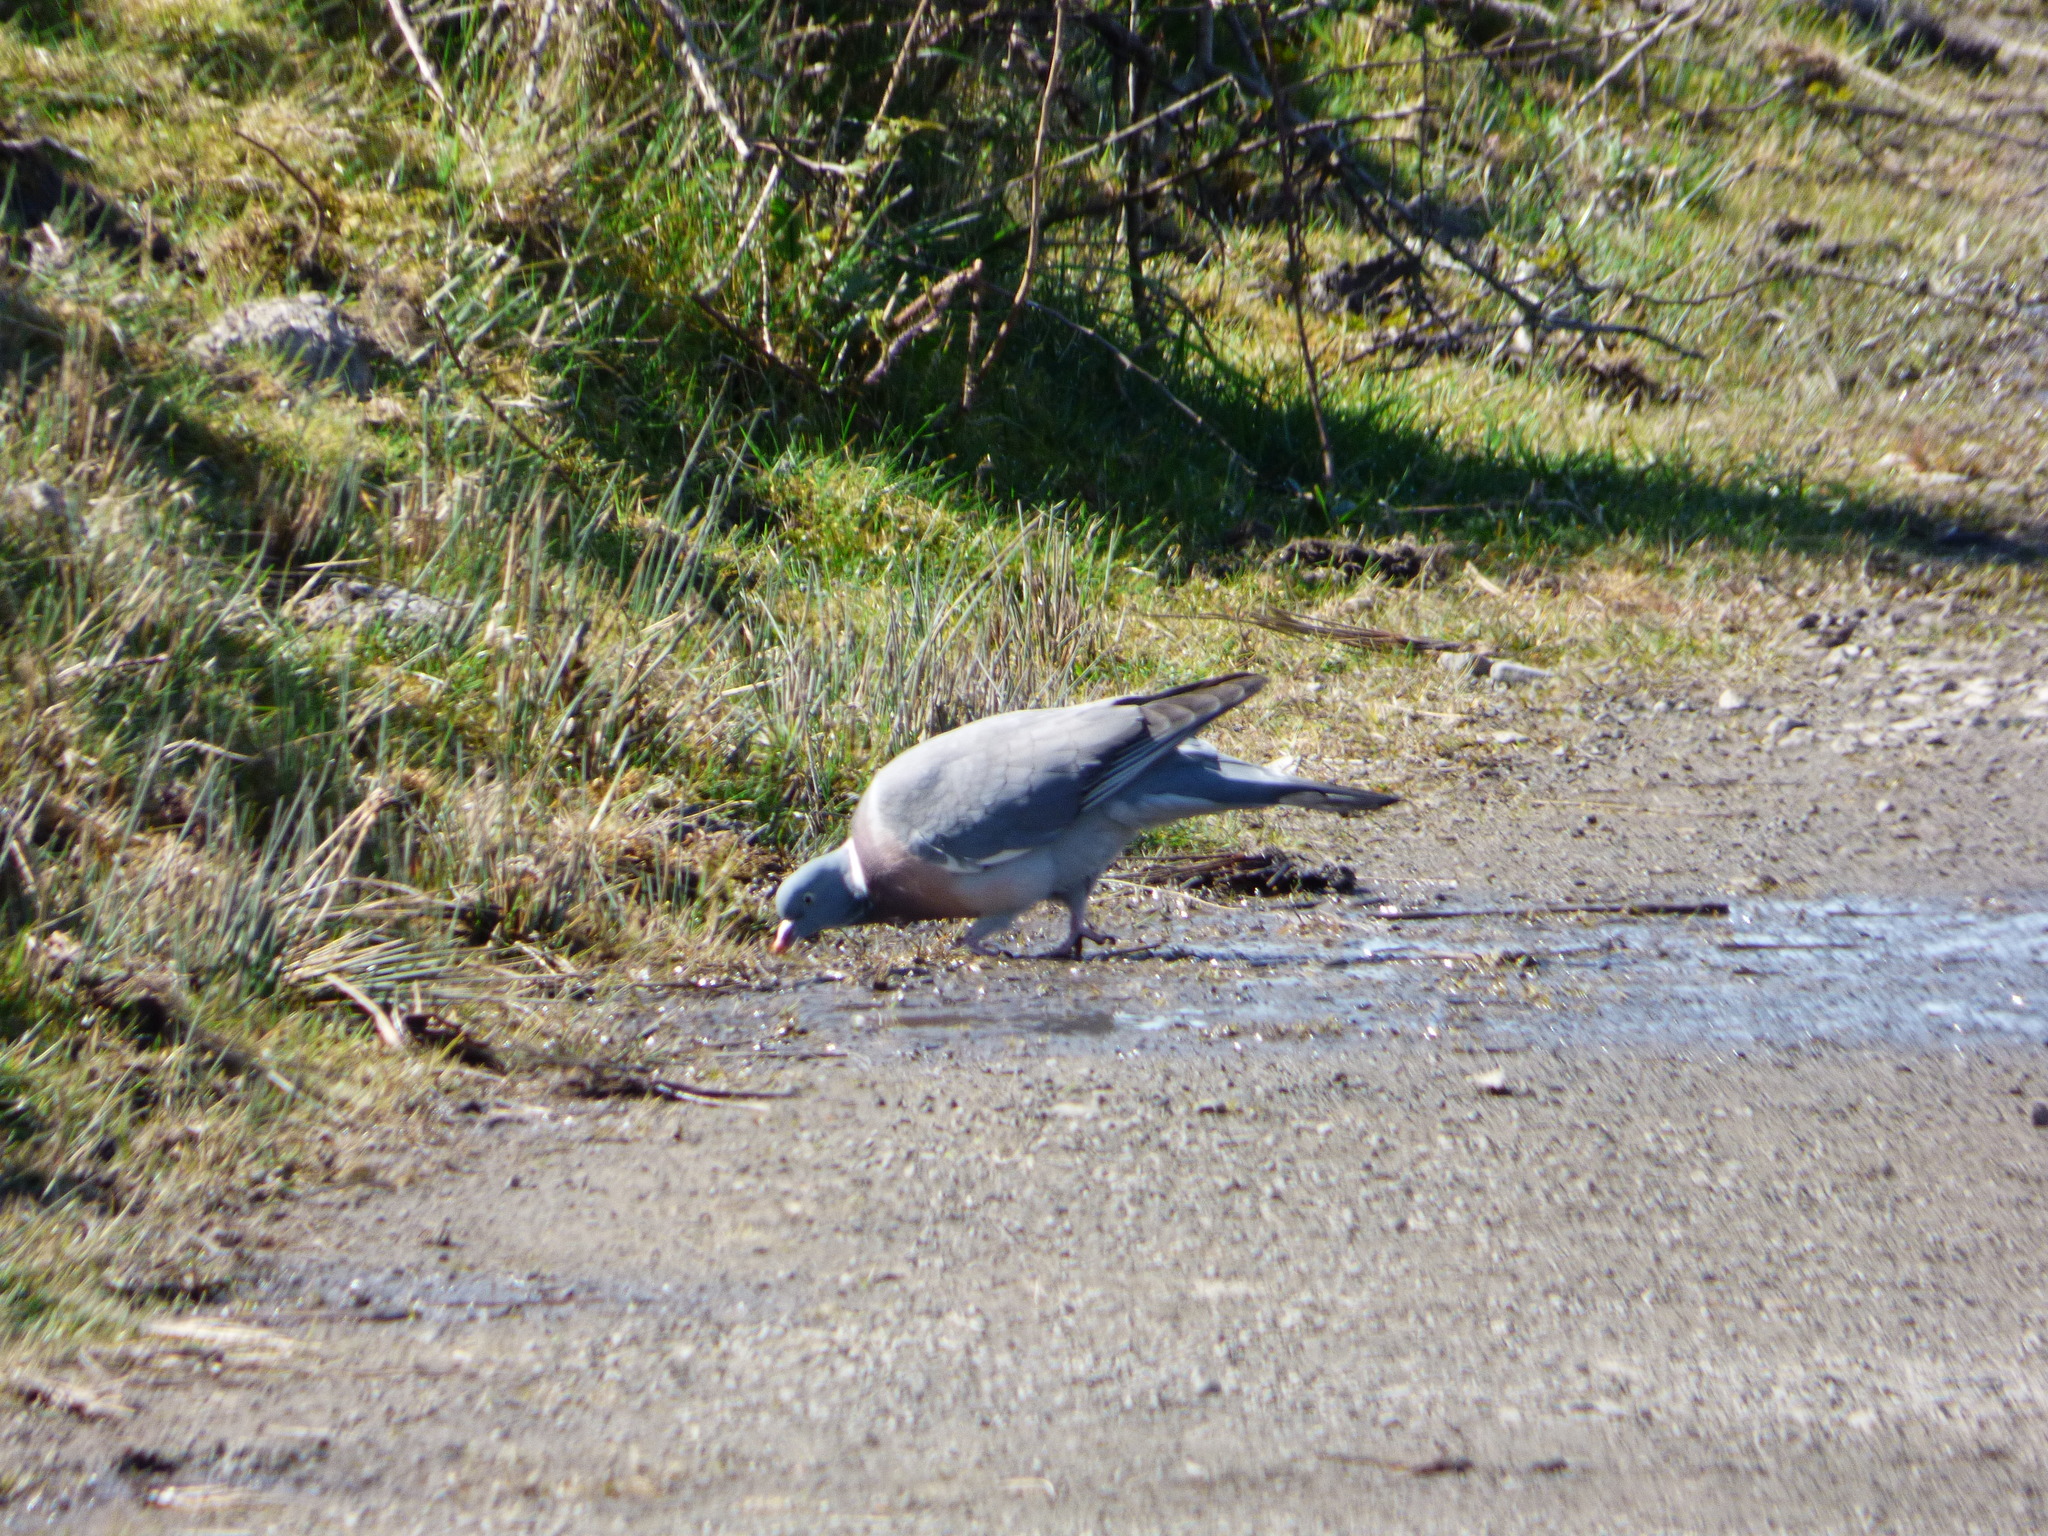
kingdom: Animalia
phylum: Chordata
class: Aves
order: Columbiformes
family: Columbidae
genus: Columba
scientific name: Columba palumbus
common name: Common wood pigeon
